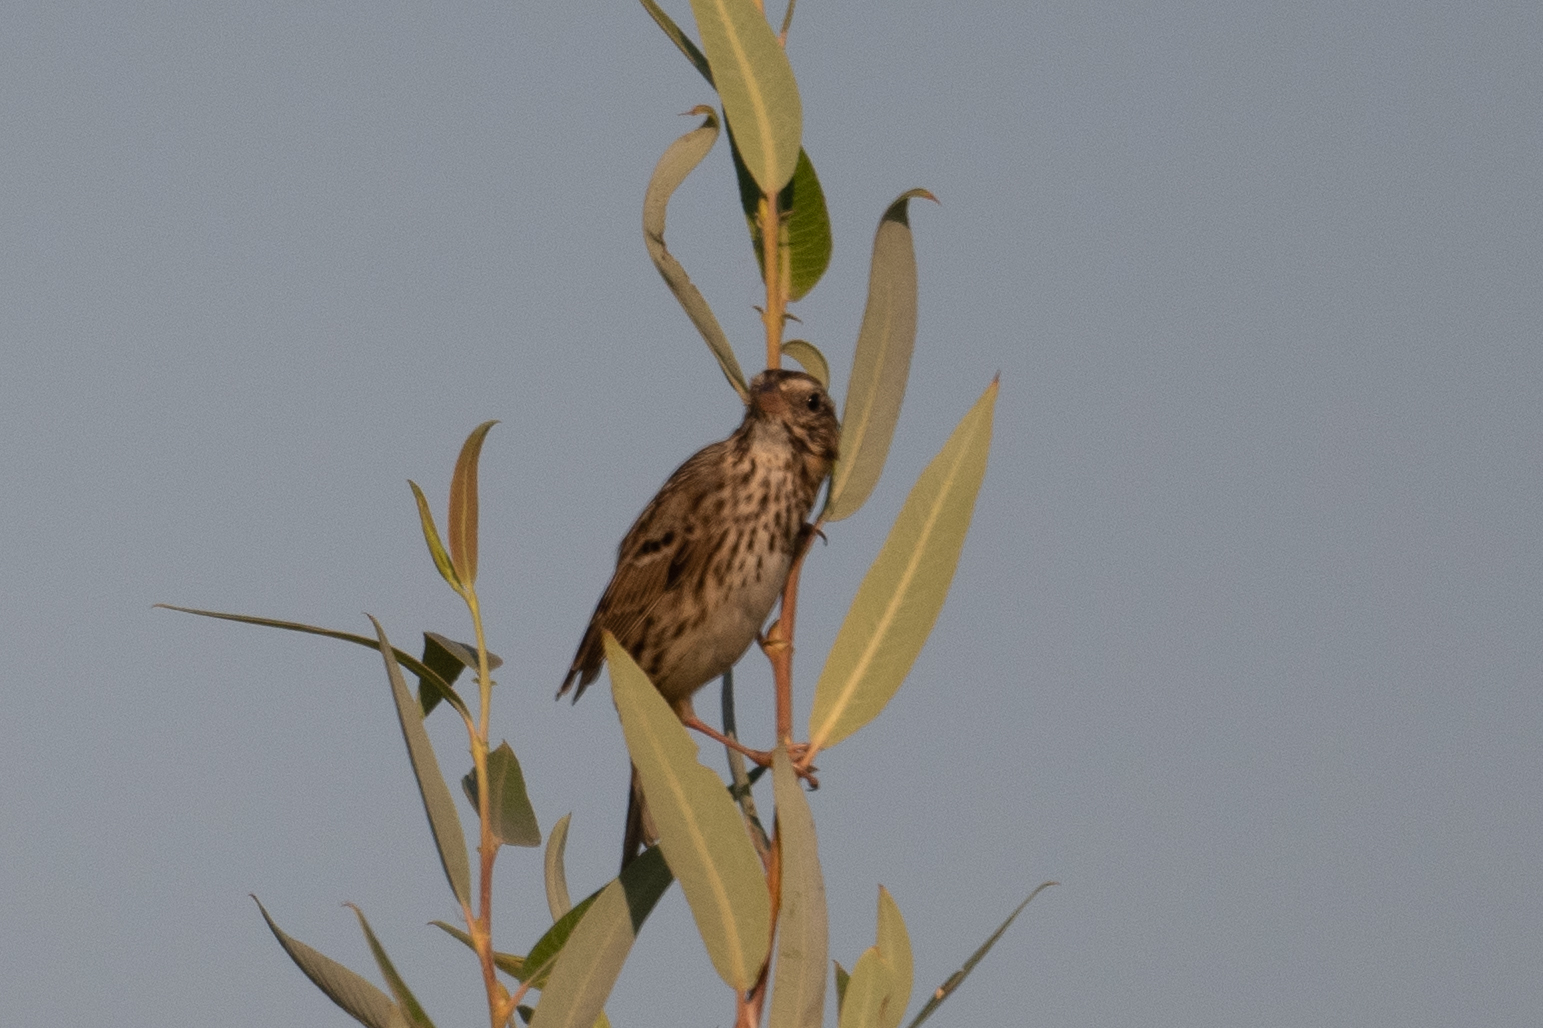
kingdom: Animalia
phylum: Chordata
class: Aves
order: Passeriformes
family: Passerellidae
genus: Passerculus
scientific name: Passerculus sandwichensis
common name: Savannah sparrow
